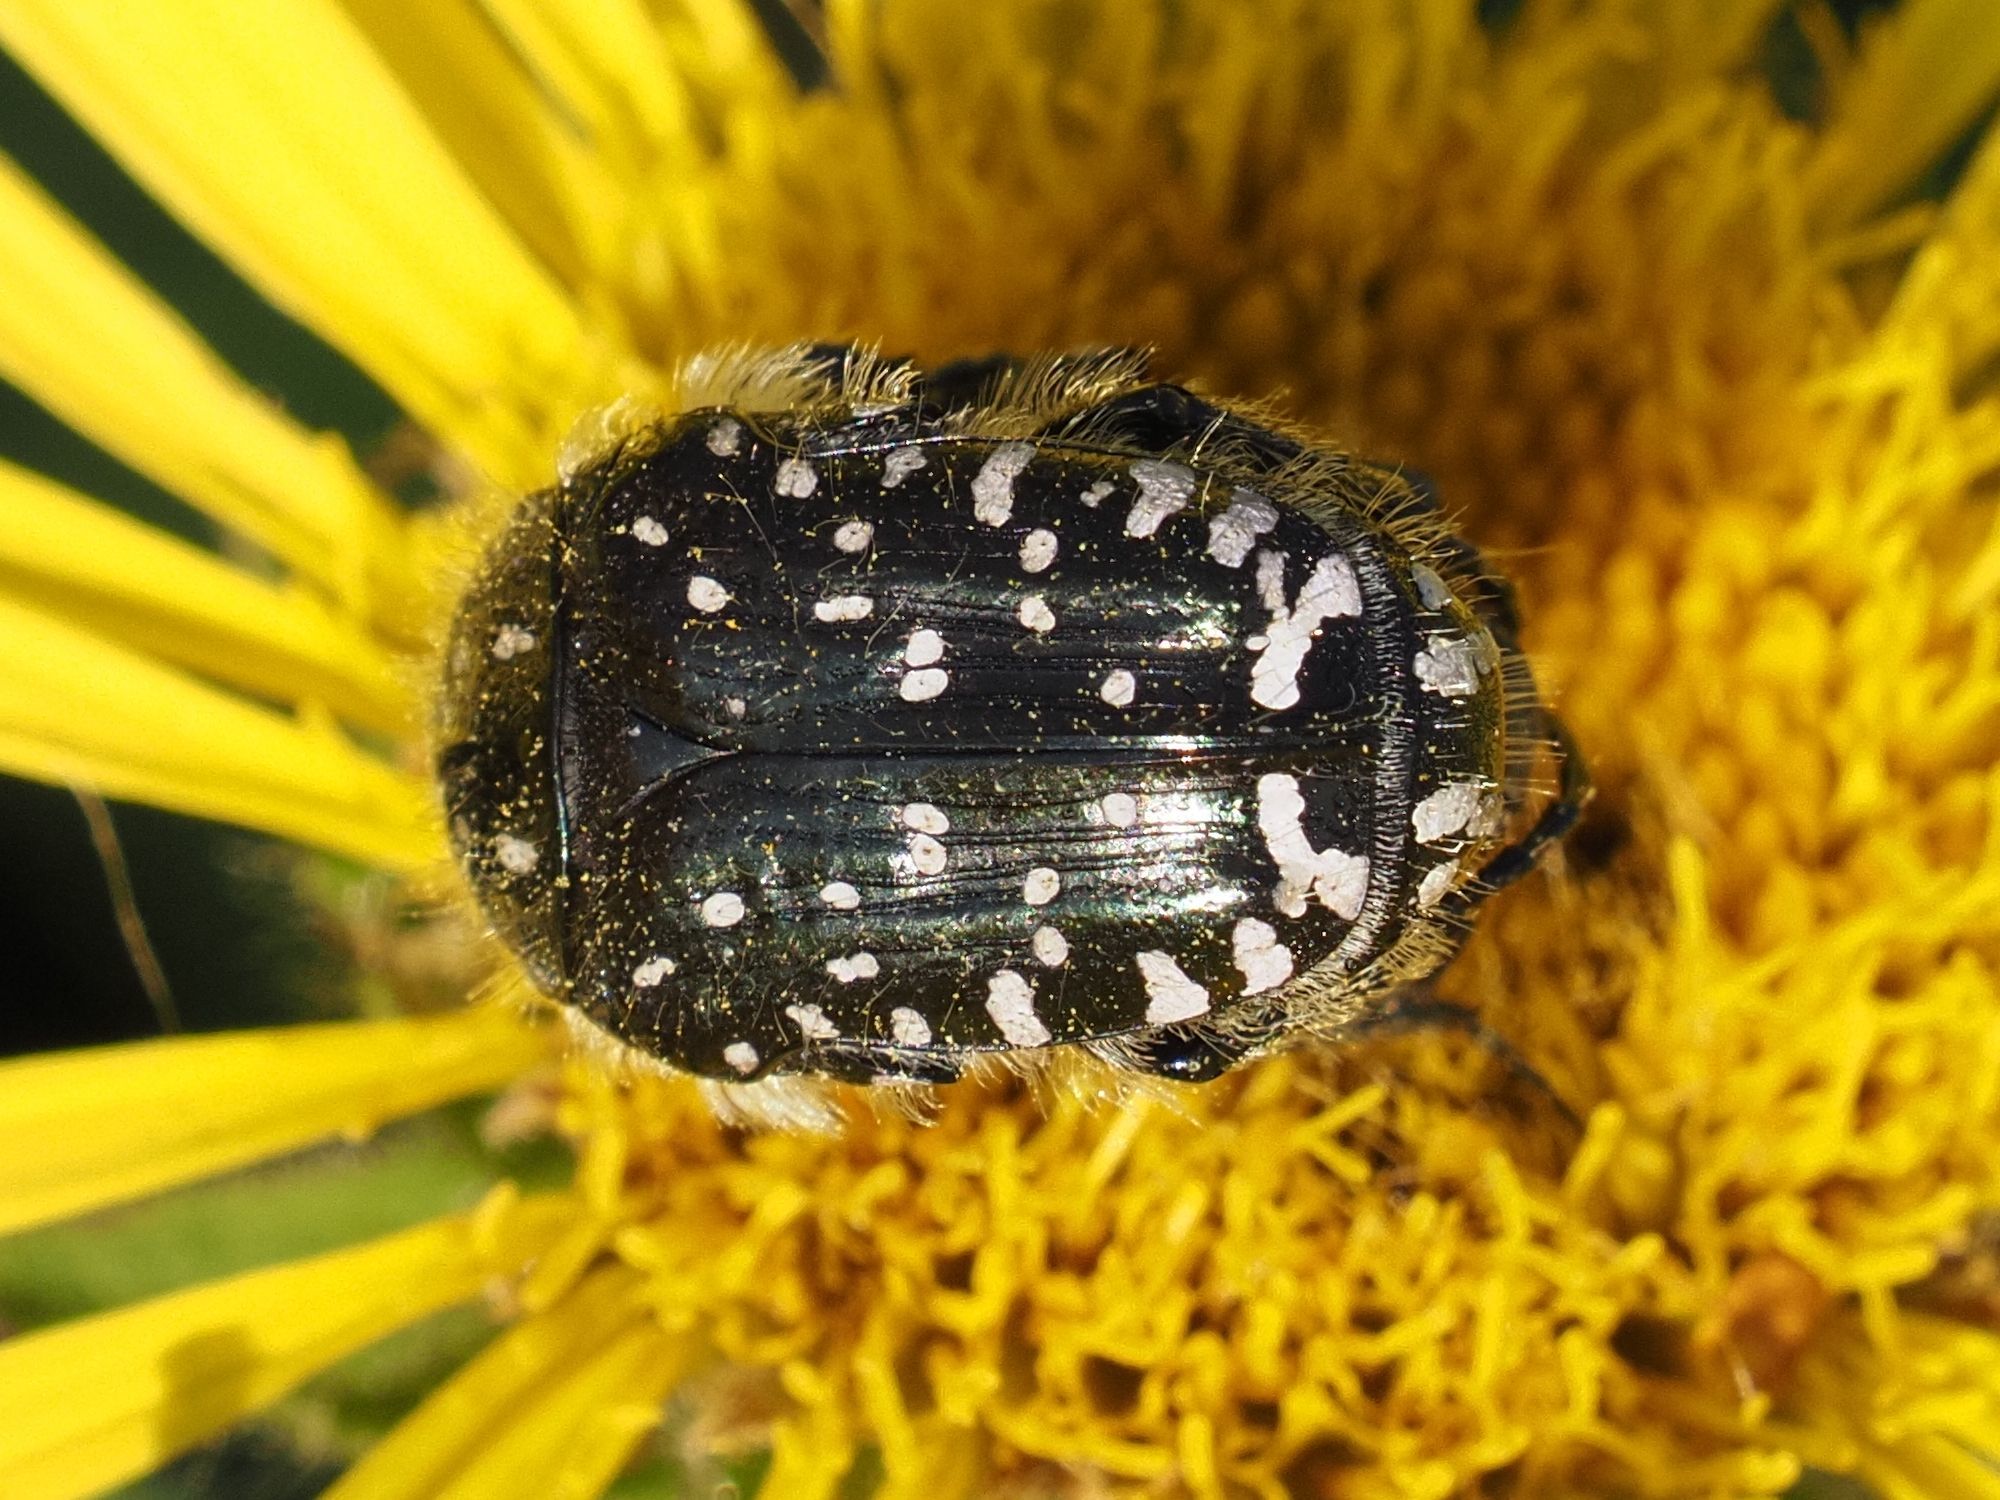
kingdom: Animalia
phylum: Arthropoda
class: Insecta
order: Coleoptera
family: Scarabaeidae
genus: Oxythyrea
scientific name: Oxythyrea funesta
